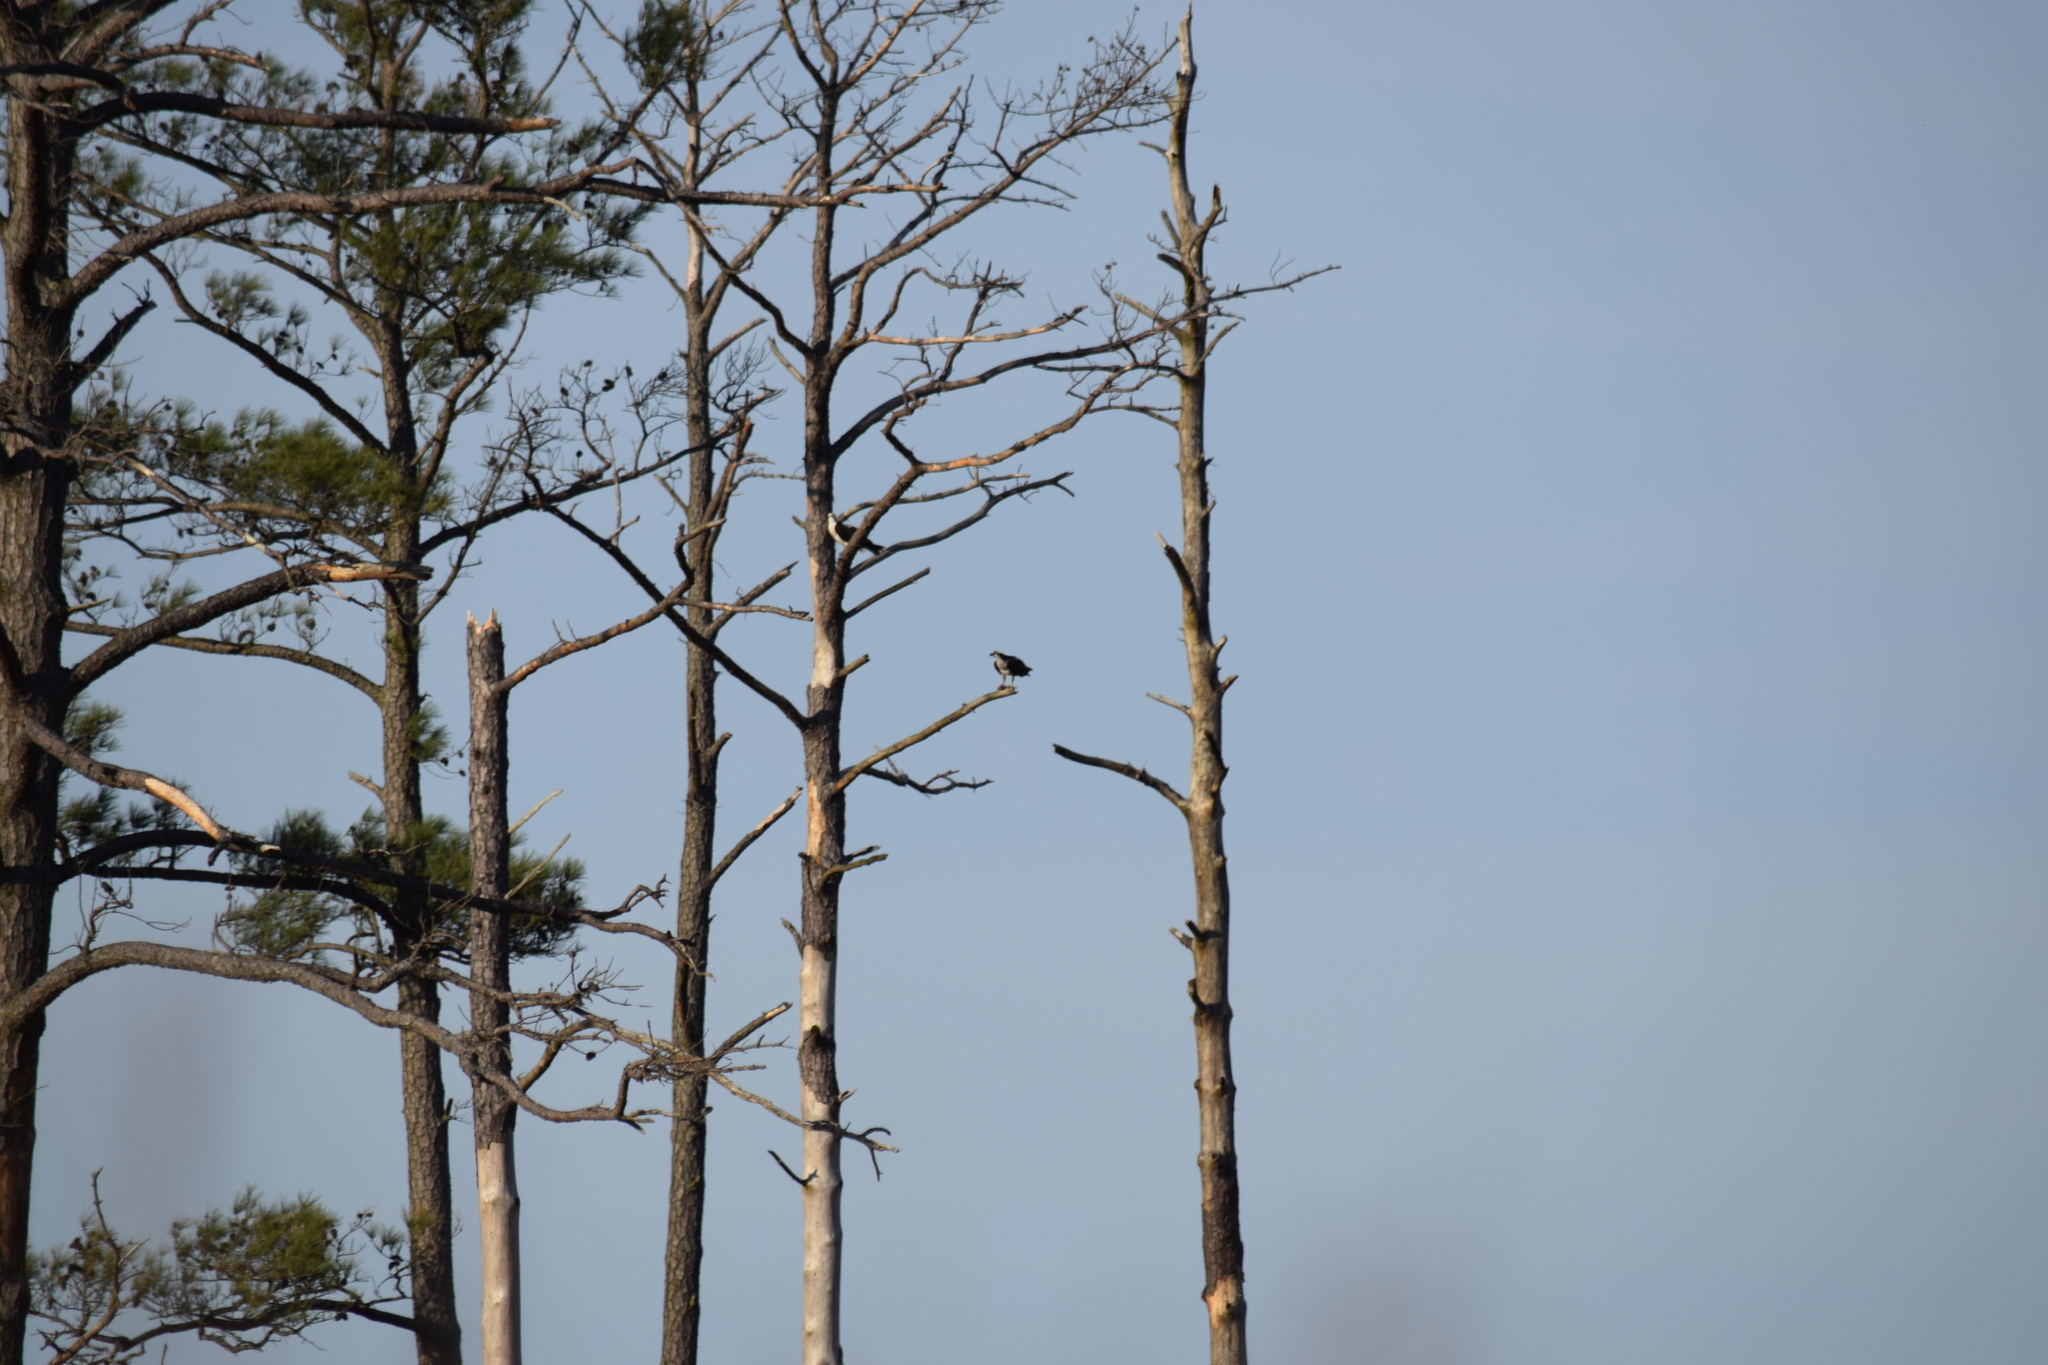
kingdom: Animalia
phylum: Chordata
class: Aves
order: Accipitriformes
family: Pandionidae
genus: Pandion
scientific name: Pandion haliaetus
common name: Osprey
